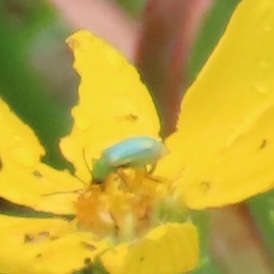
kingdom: Animalia
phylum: Arthropoda
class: Insecta
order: Coleoptera
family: Chrysomelidae
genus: Diabrotica
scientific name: Diabrotica longicornis
